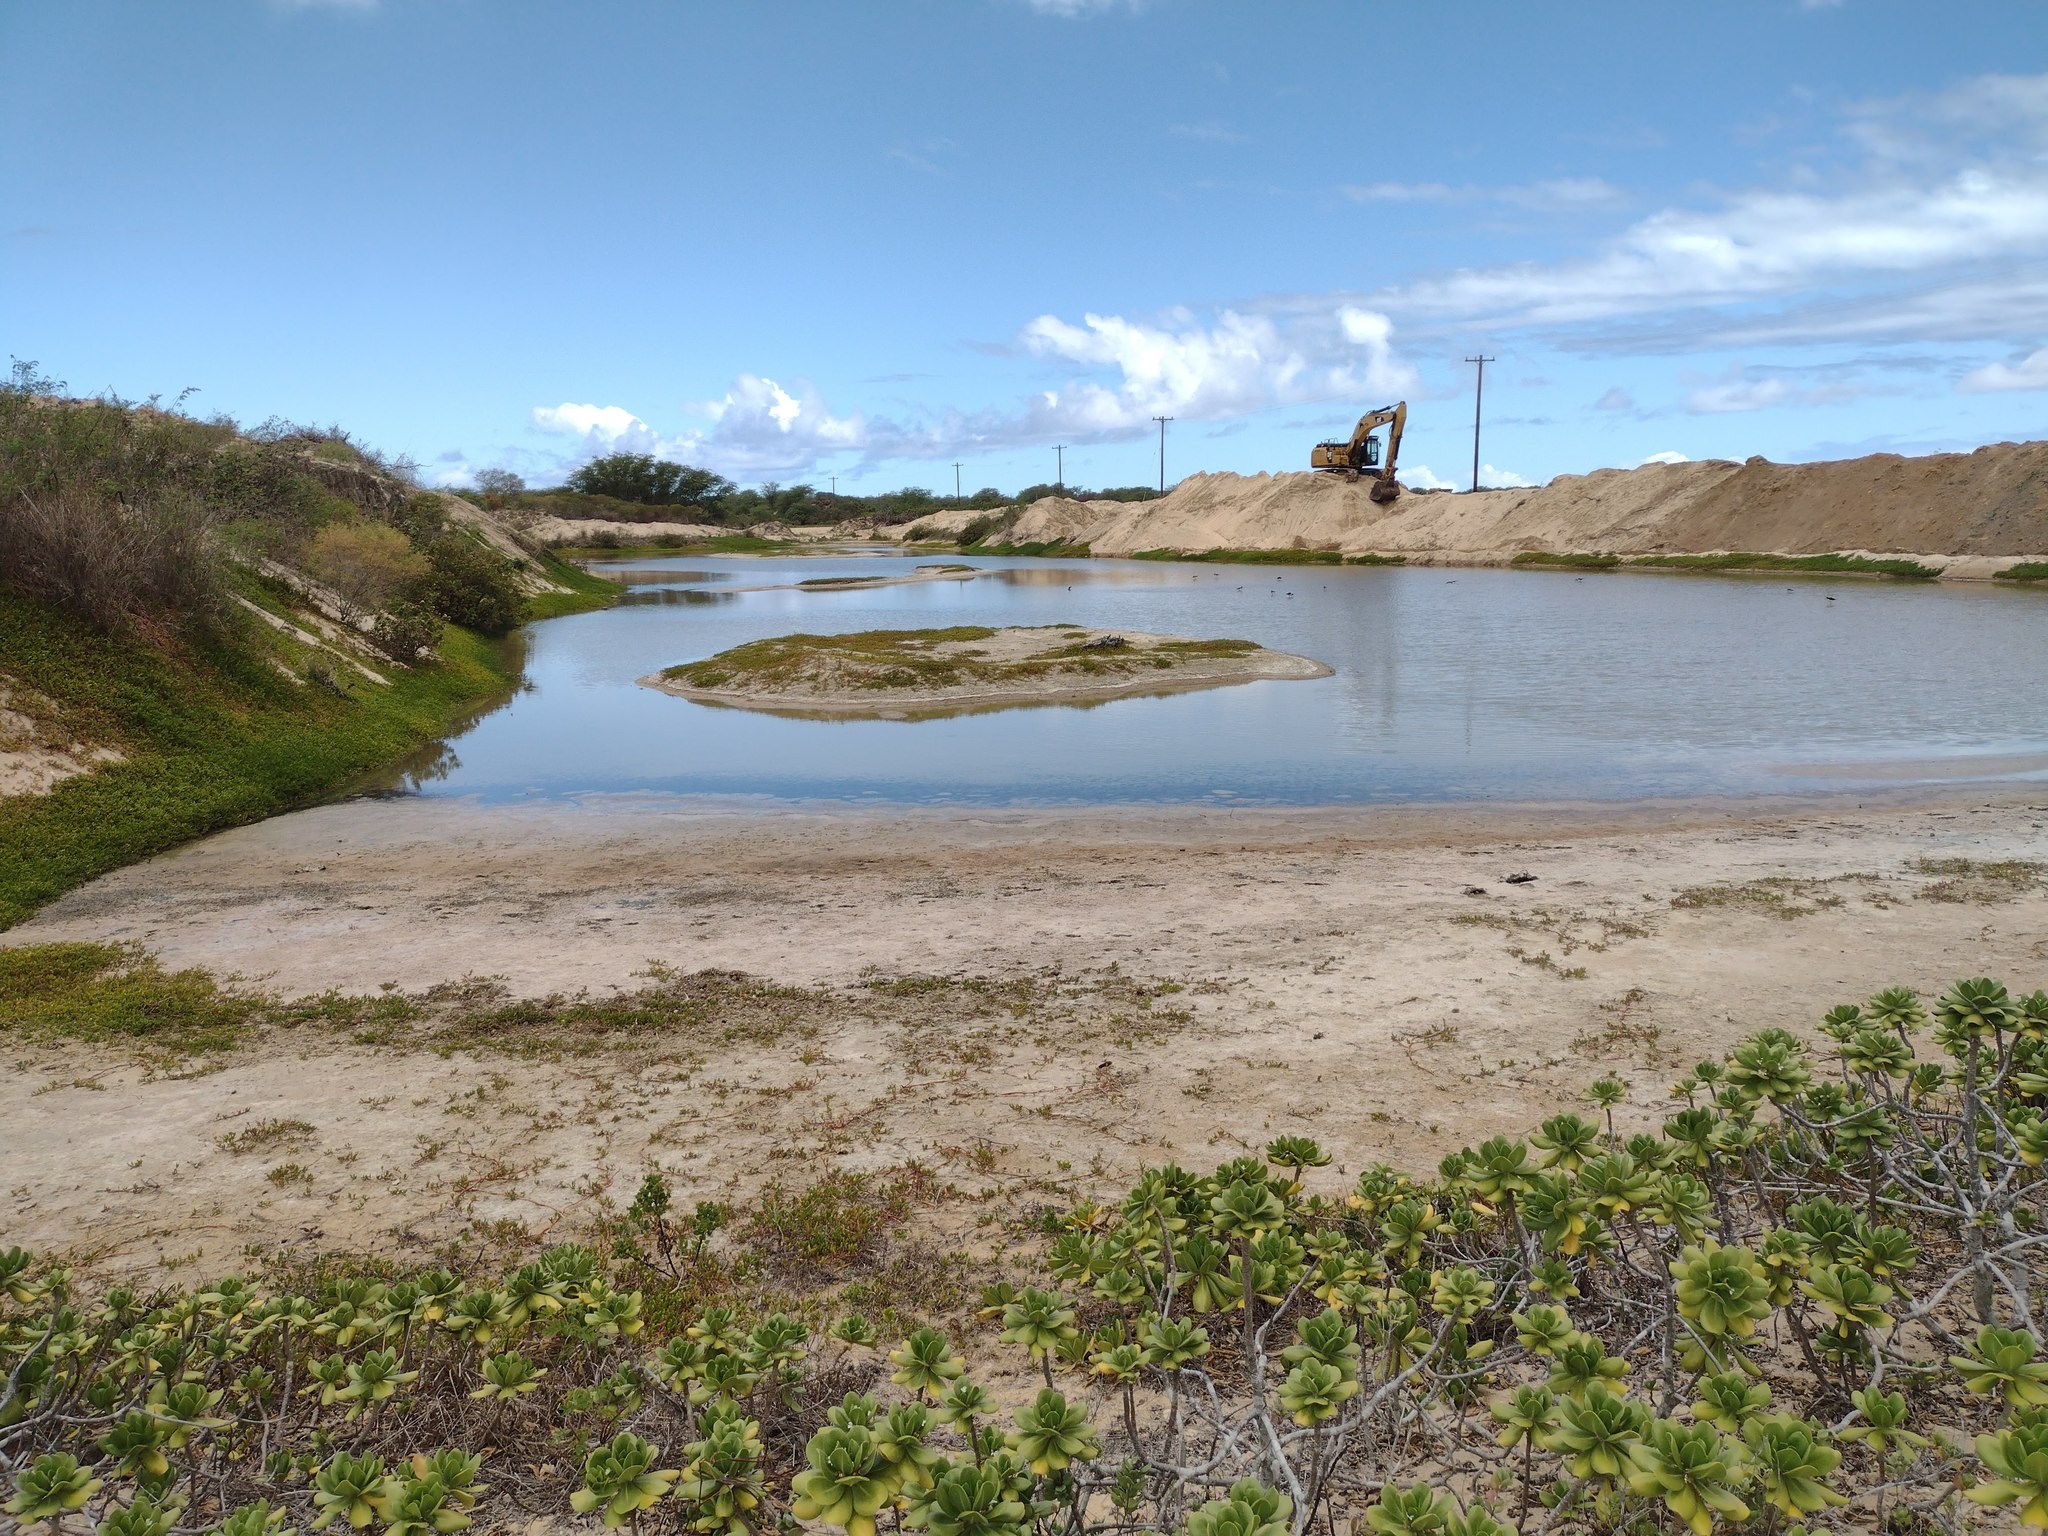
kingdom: Plantae
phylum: Tracheophyta
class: Magnoliopsida
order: Asterales
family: Goodeniaceae
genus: Scaevola
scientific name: Scaevola taccada
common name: Sea lettucetree
